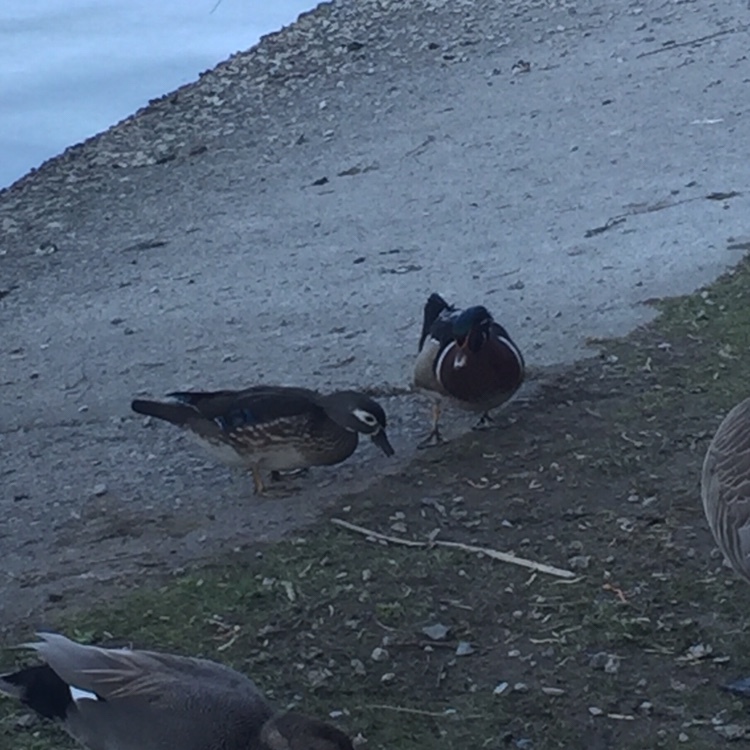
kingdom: Animalia
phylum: Chordata
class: Aves
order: Anseriformes
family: Anatidae
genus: Aix
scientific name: Aix sponsa
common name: Wood duck
